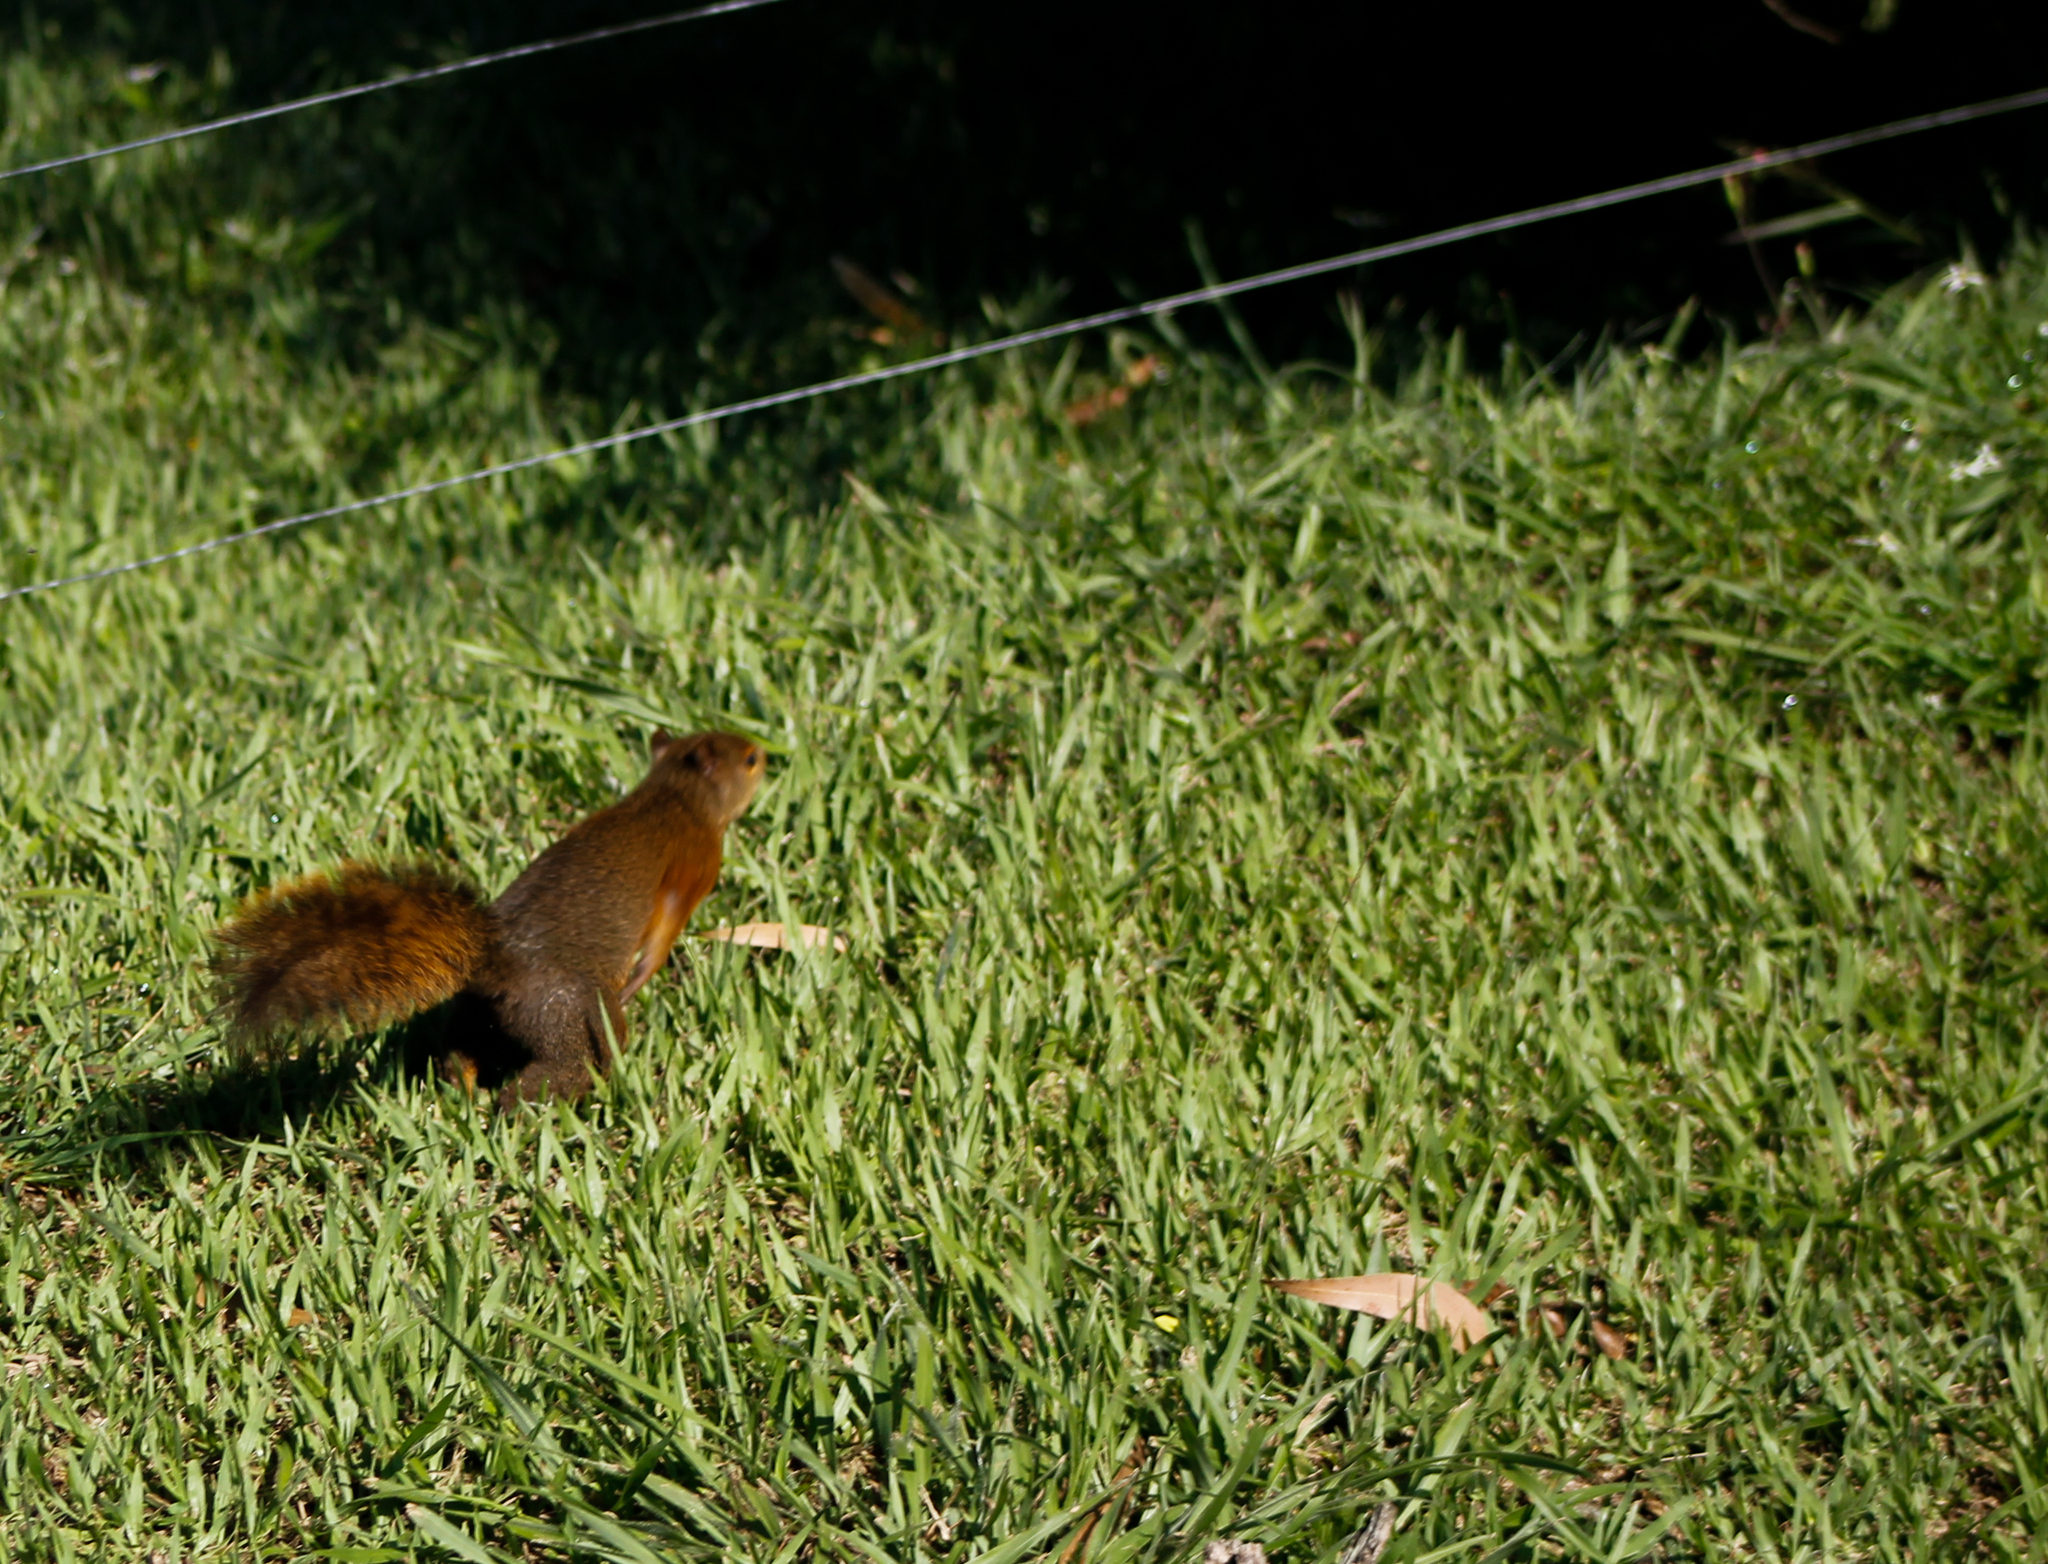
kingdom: Animalia
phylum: Chordata
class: Mammalia
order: Rodentia
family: Sciuridae
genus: Sciurus
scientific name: Sciurus granatensis
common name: Red-tailed squirrel
